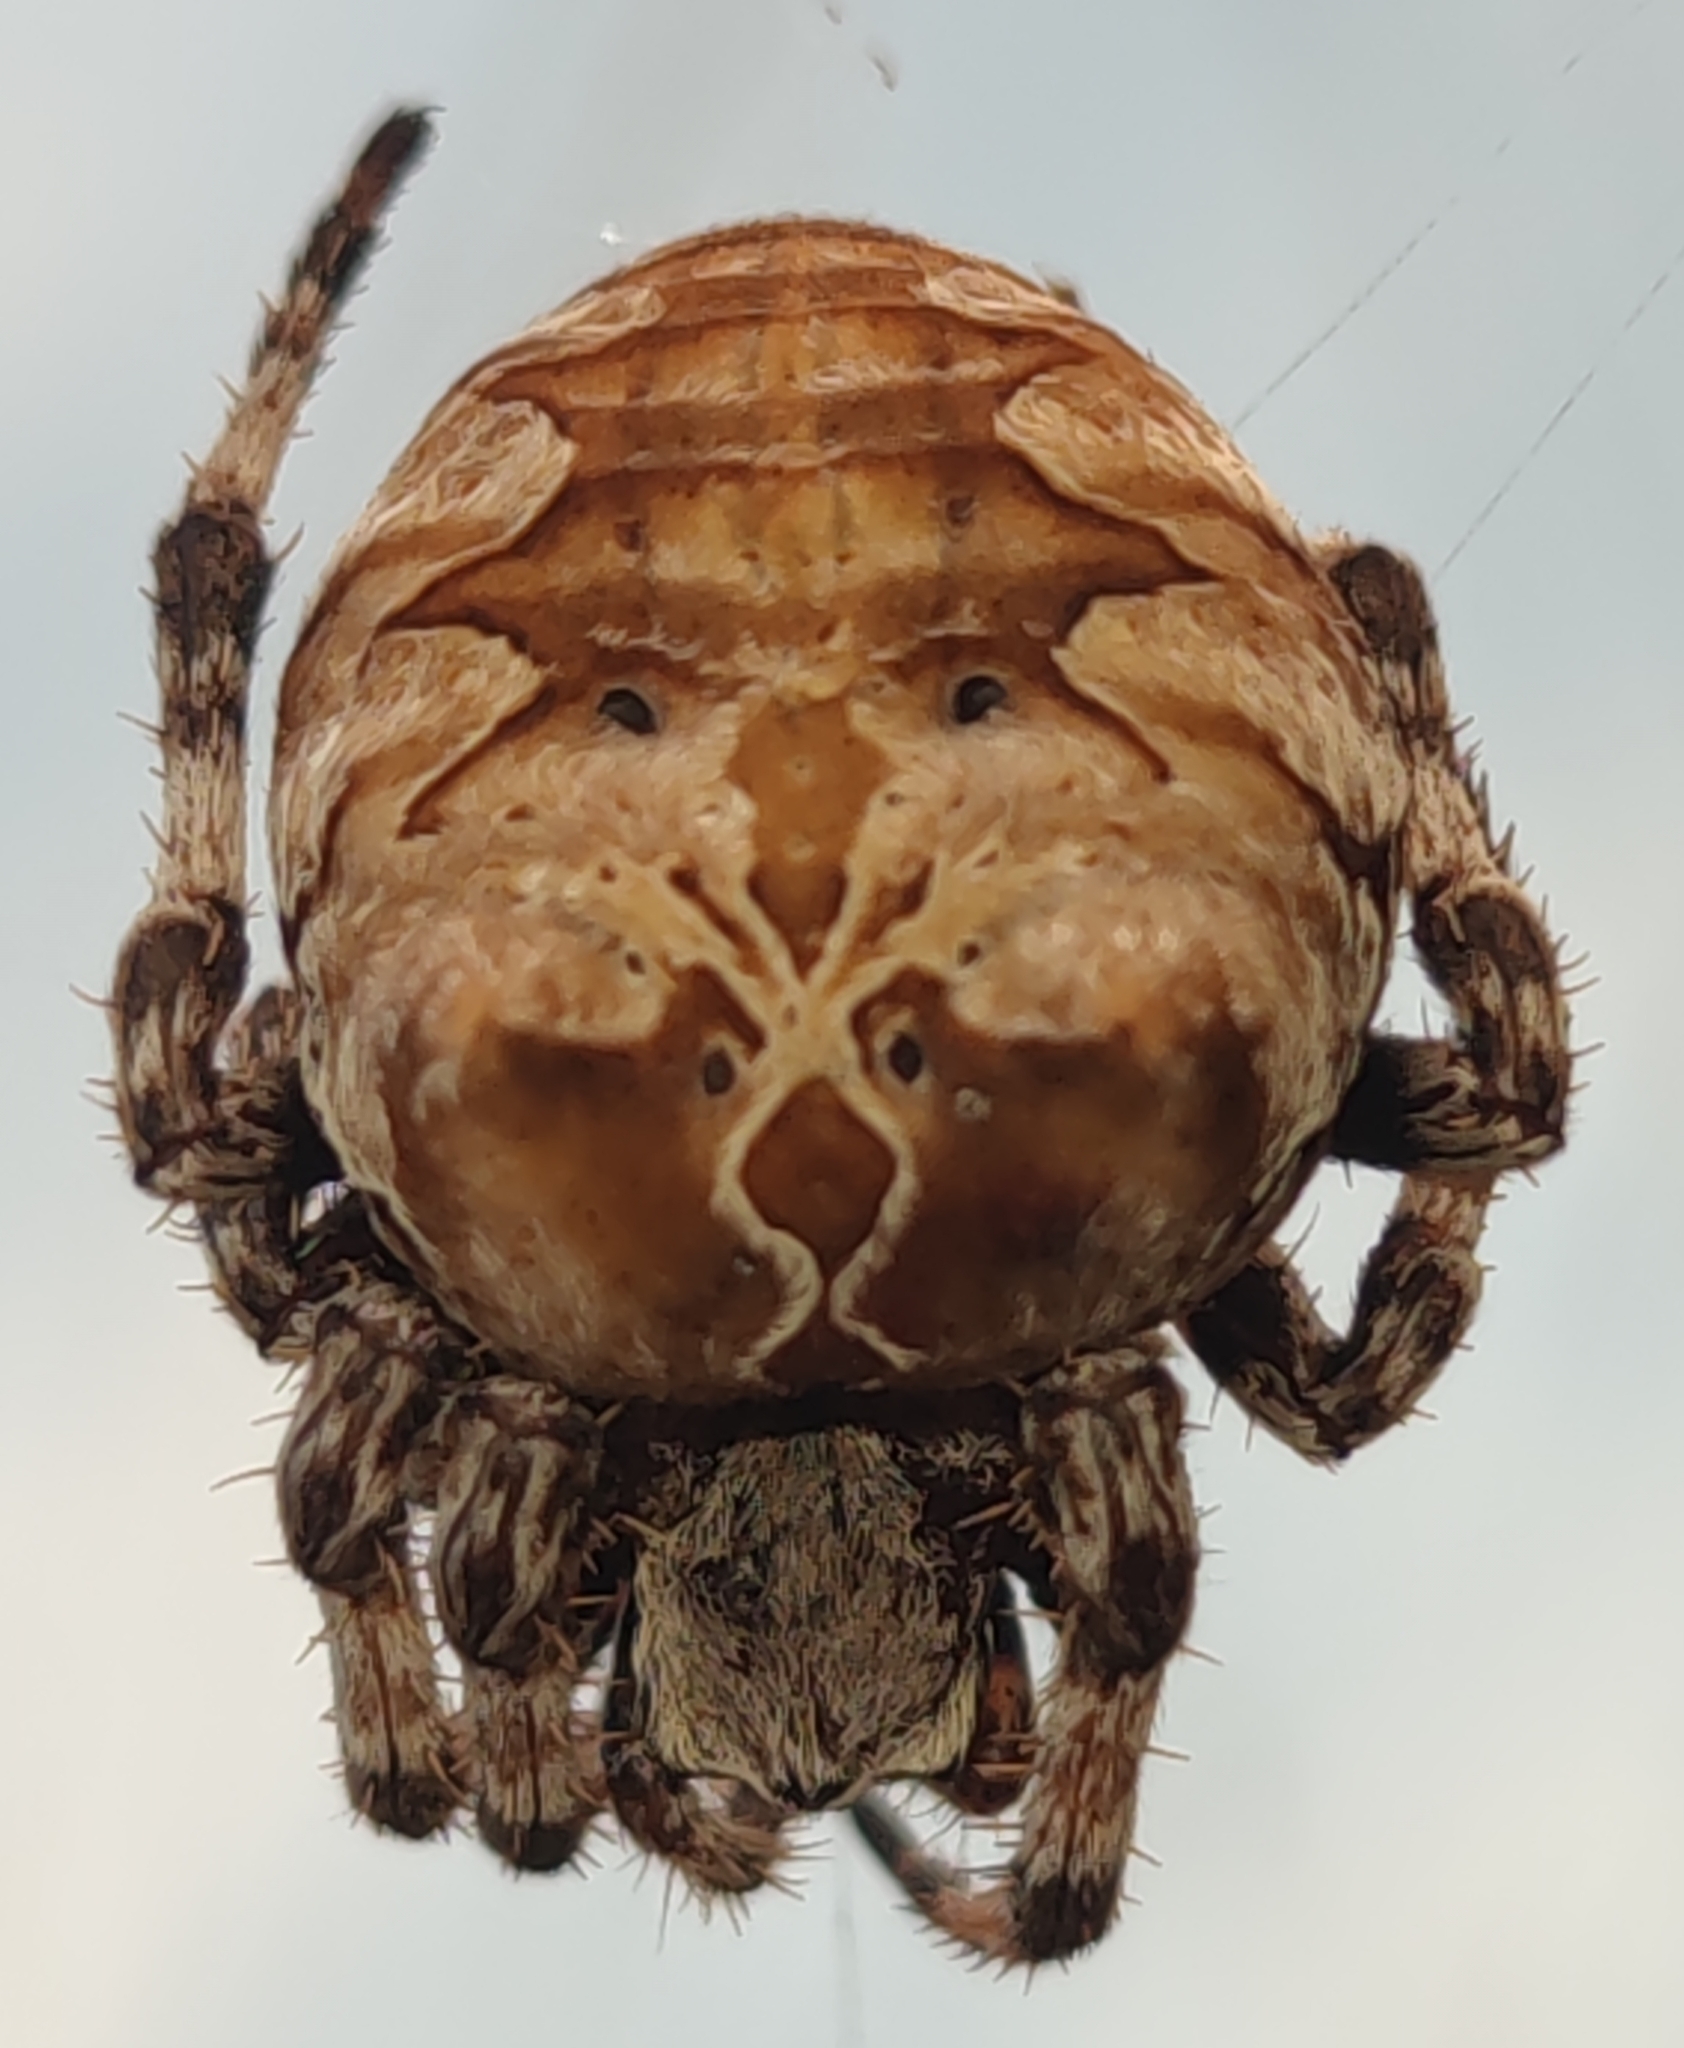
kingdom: Animalia
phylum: Arthropoda
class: Arachnida
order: Araneae
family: Araneidae
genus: Araneus
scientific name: Araneus grossus
